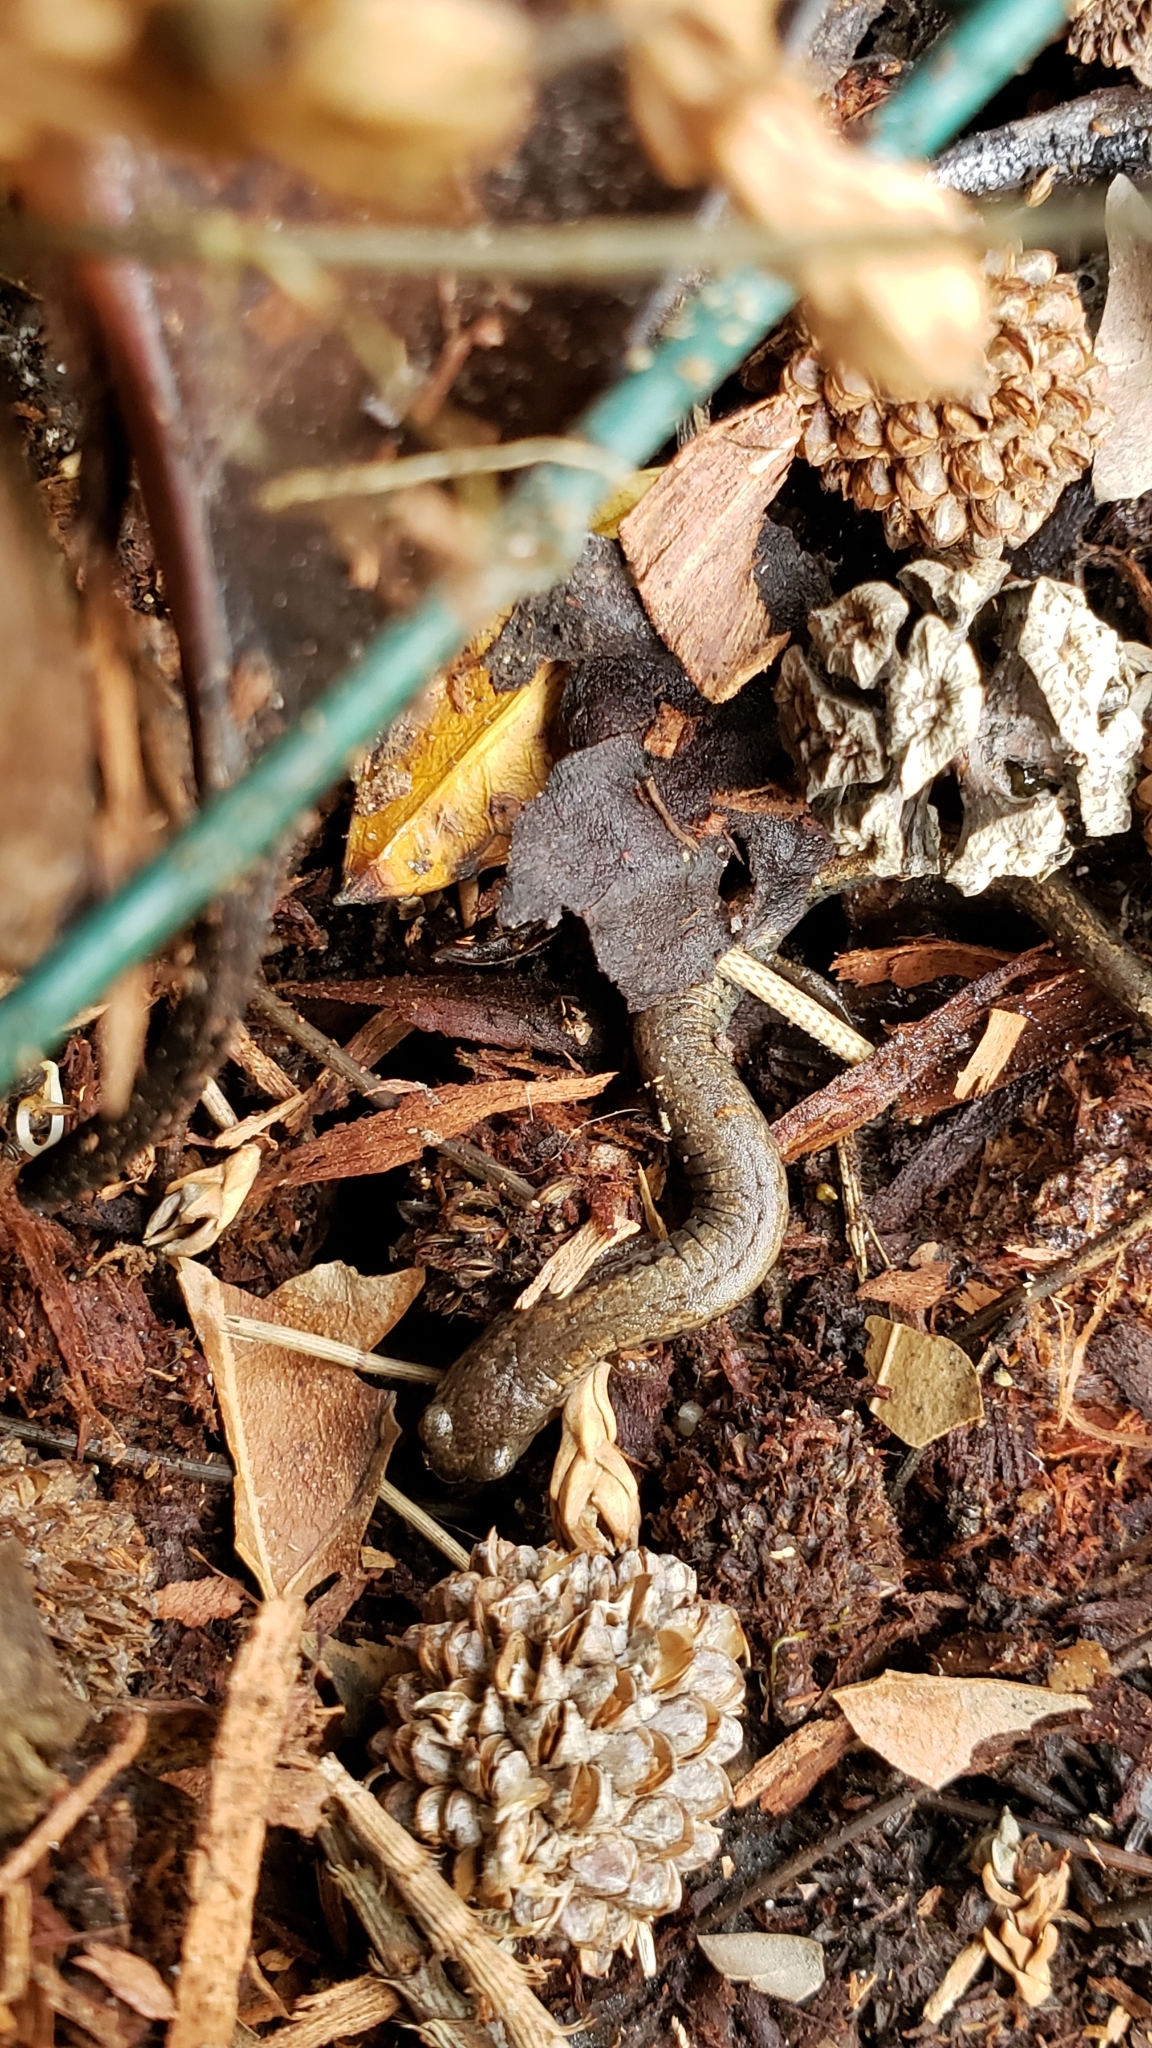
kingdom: Animalia
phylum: Chordata
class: Amphibia
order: Caudata
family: Plethodontidae
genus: Batrachoseps
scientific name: Batrachoseps attenuatus
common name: California slender salamander
